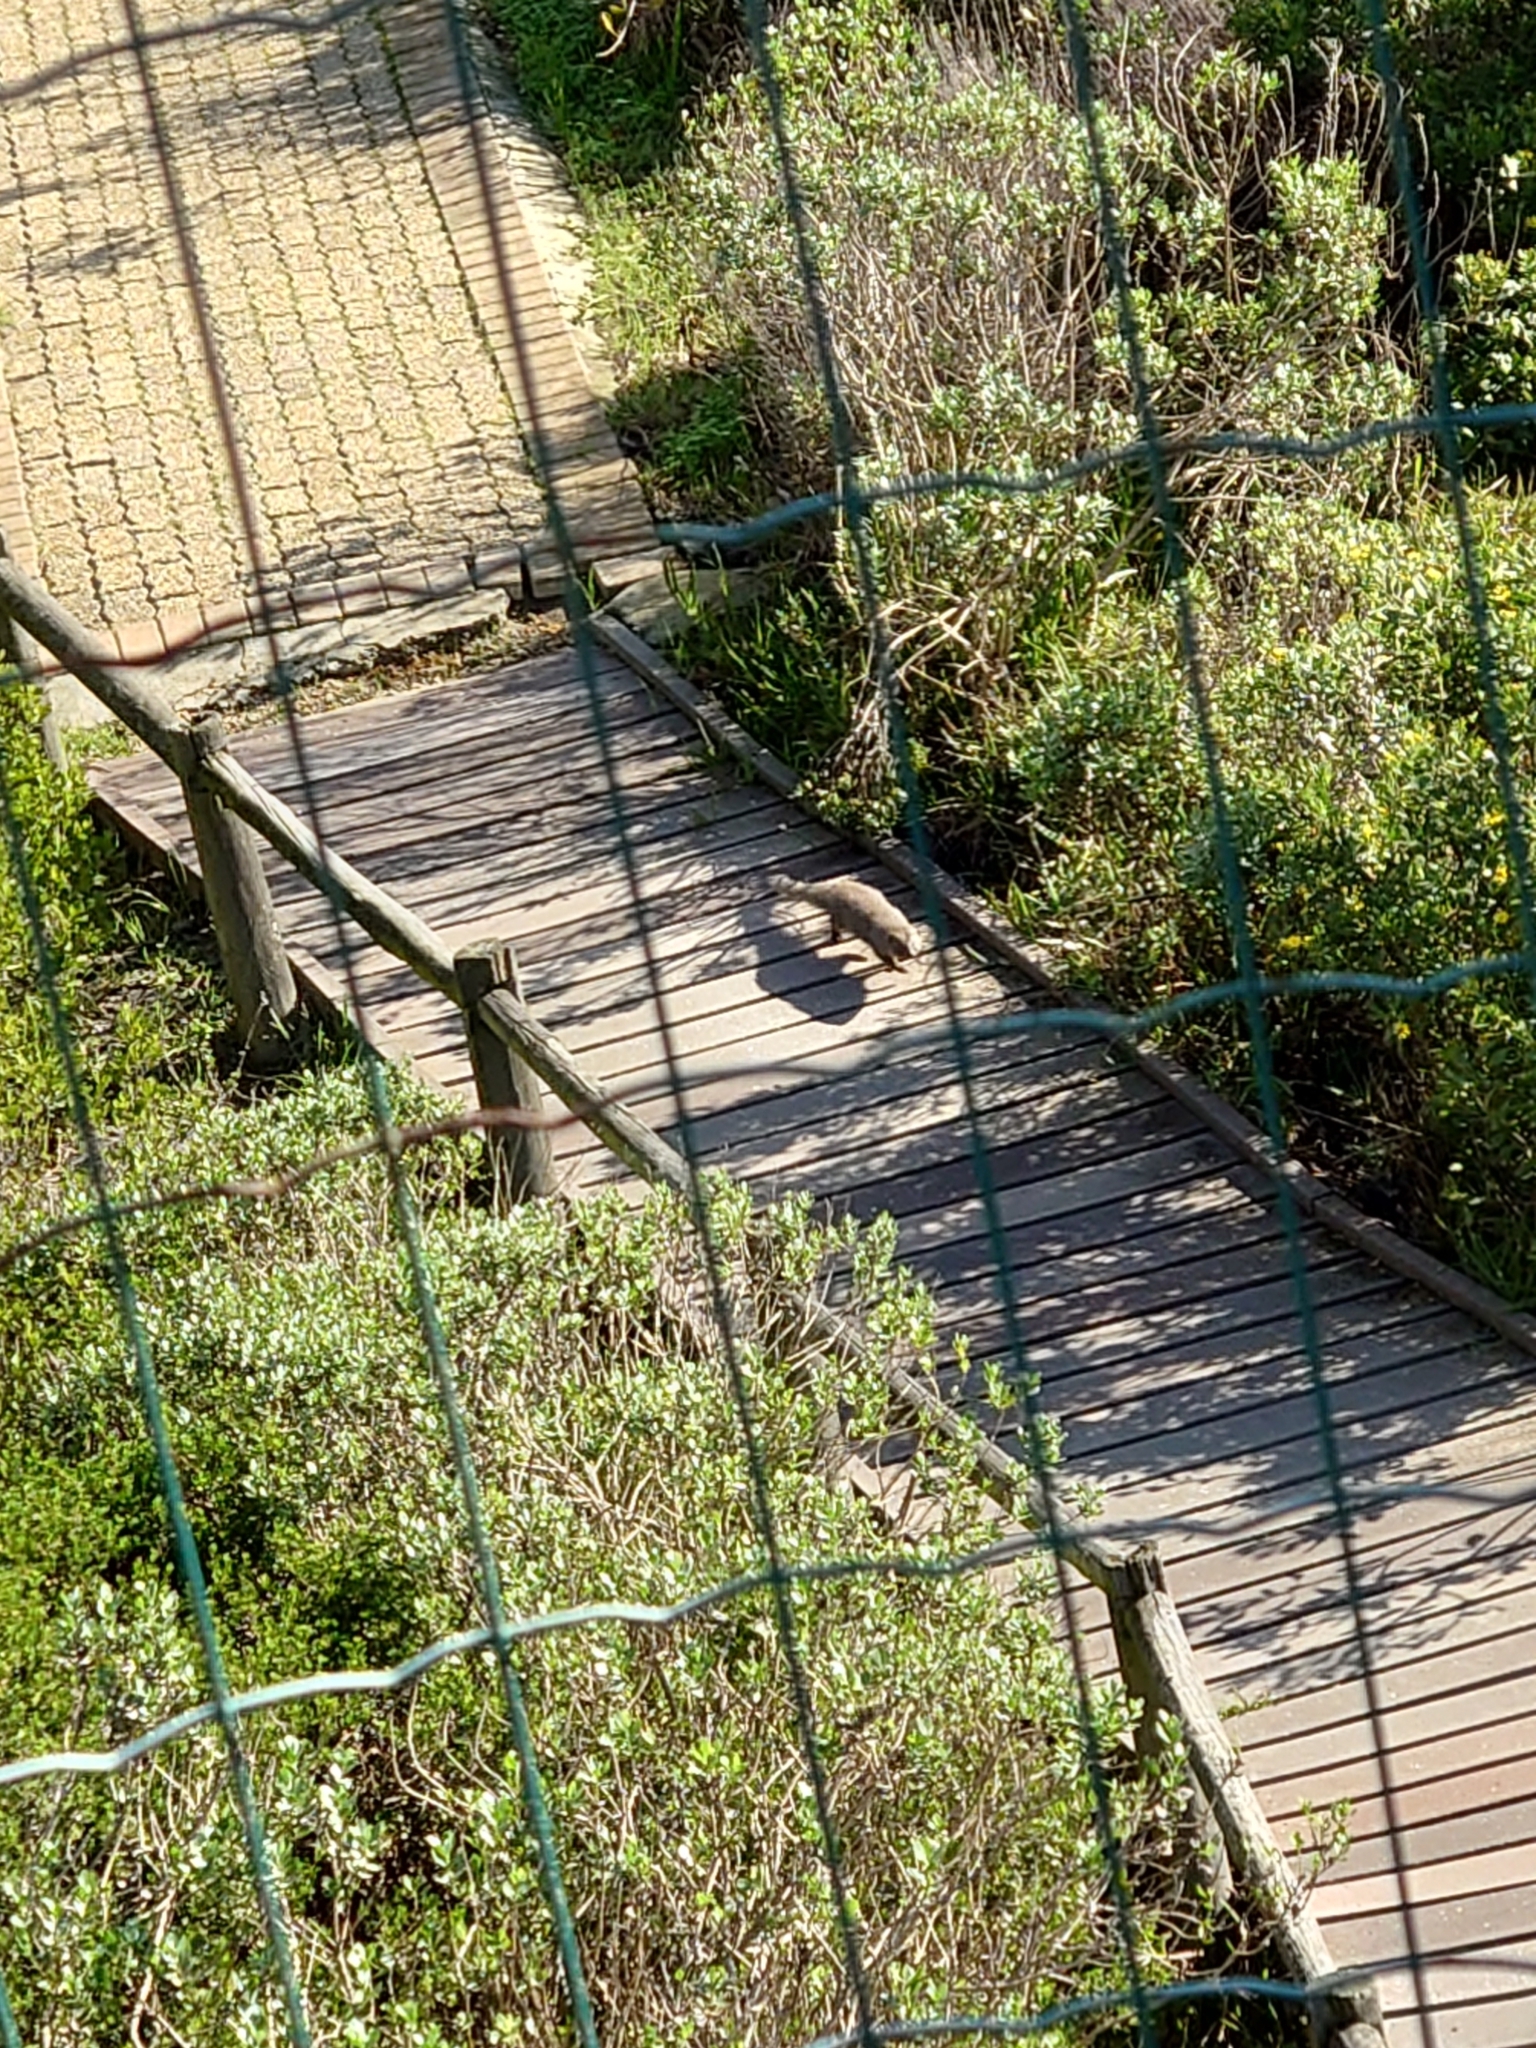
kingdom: Animalia
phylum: Chordata
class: Mammalia
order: Carnivora
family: Herpestidae
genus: Galerella
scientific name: Galerella pulverulenta
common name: Cape gray mongoose
